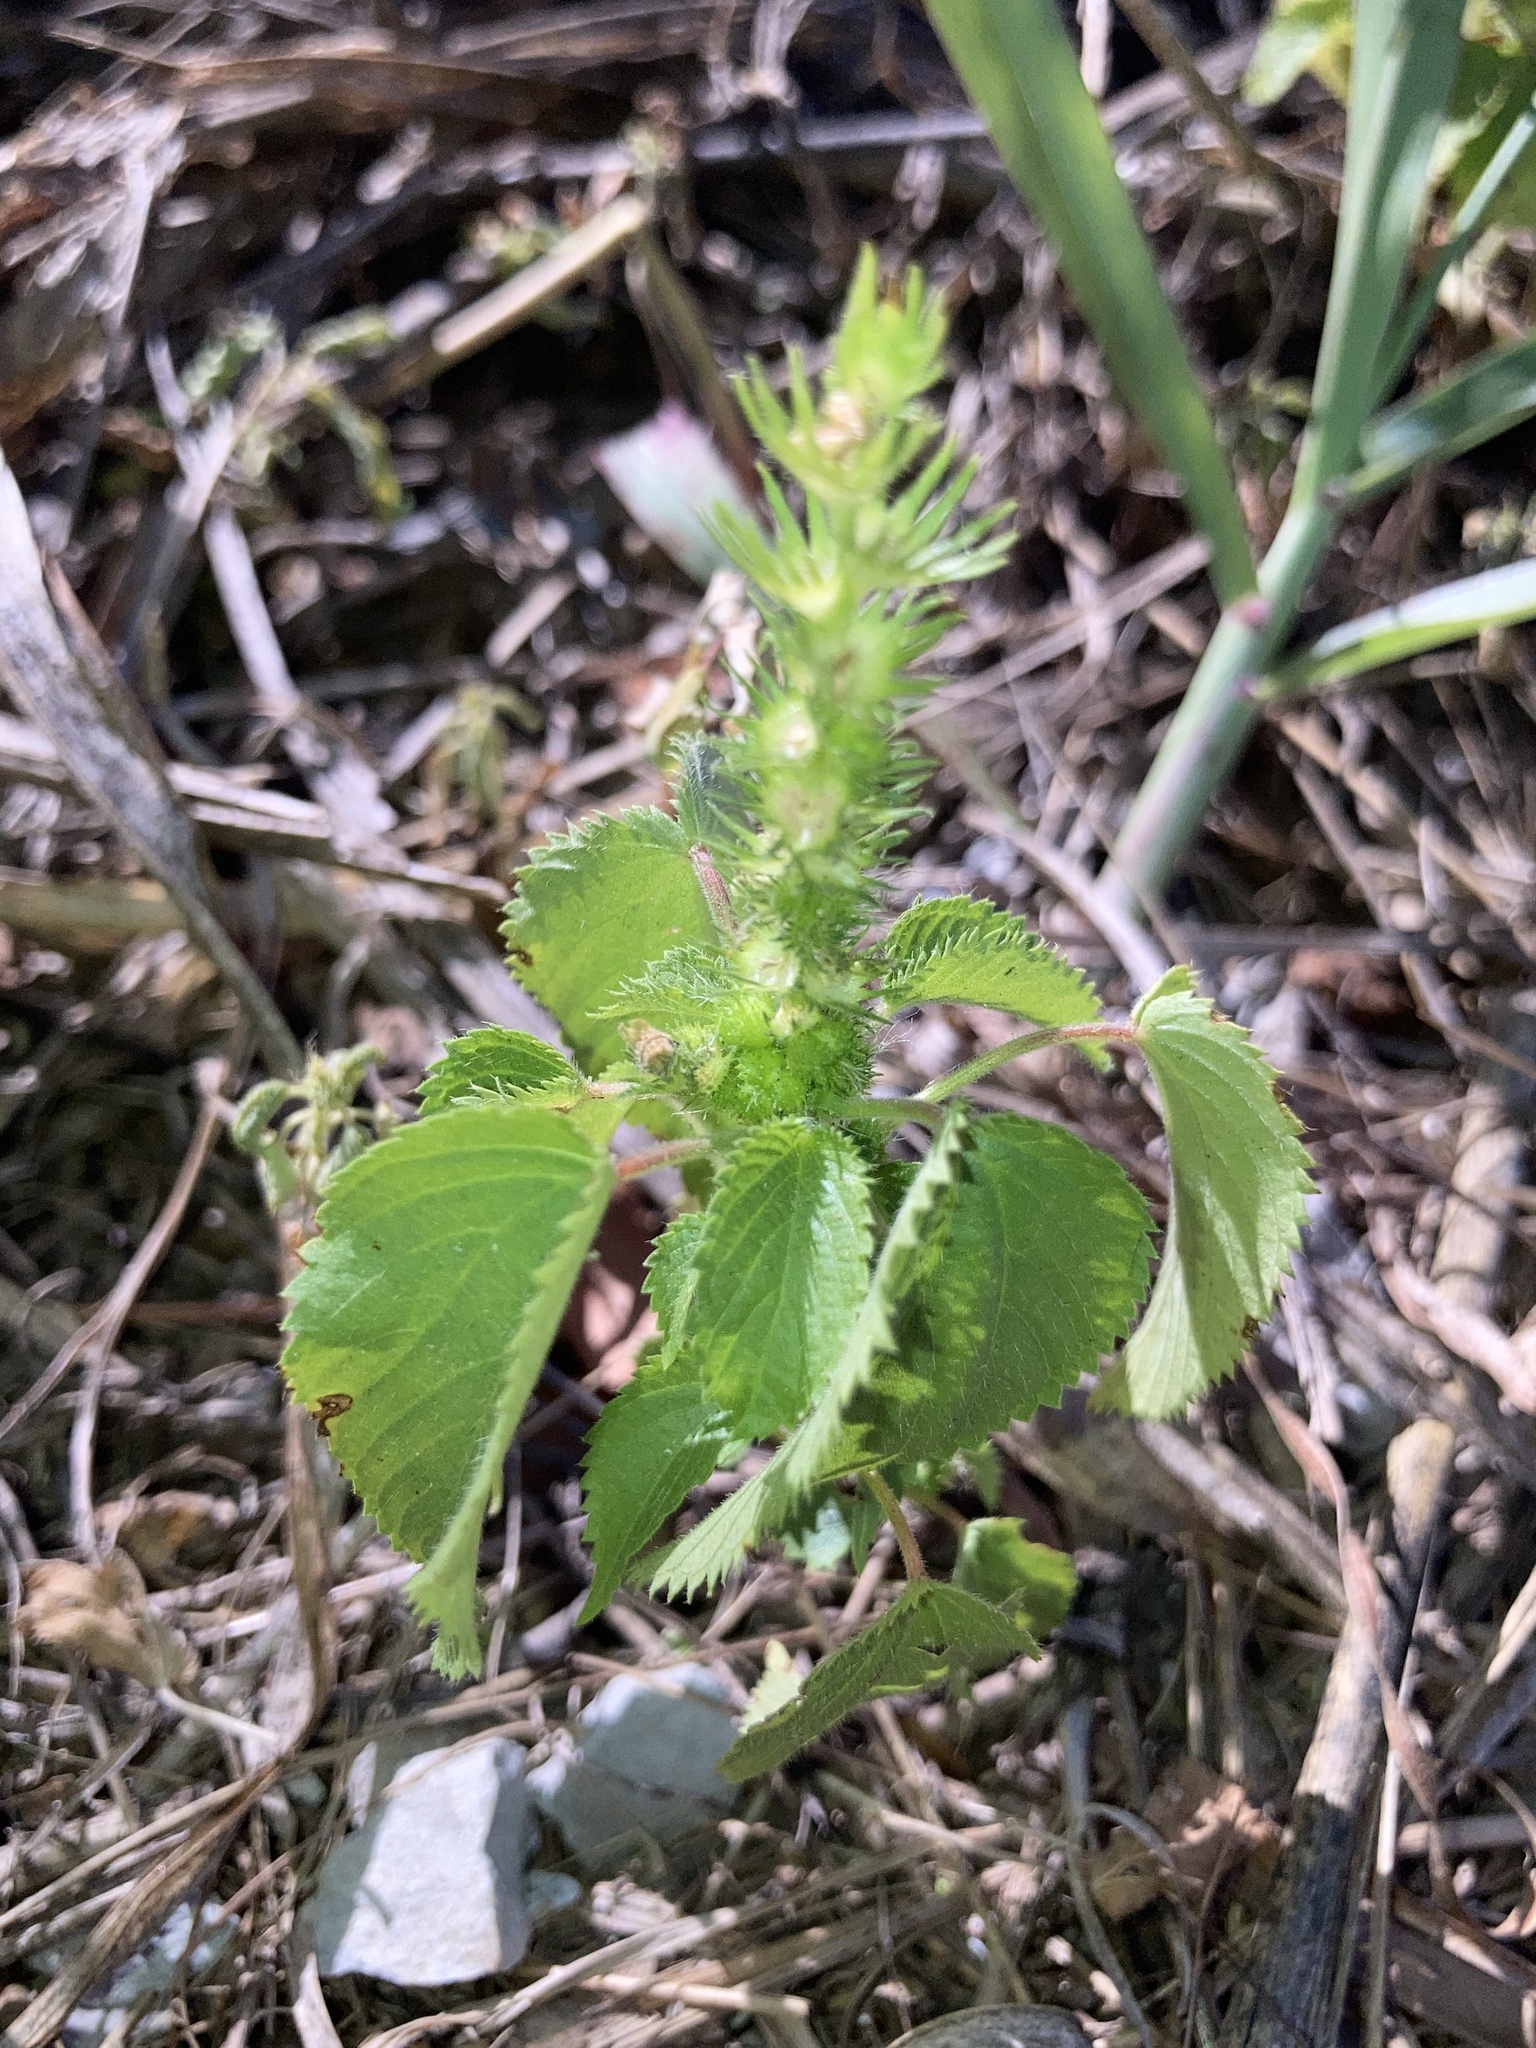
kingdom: Plantae
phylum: Tracheophyta
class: Magnoliopsida
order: Malpighiales
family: Euphorbiaceae
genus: Acalypha
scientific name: Acalypha ostryifolia
